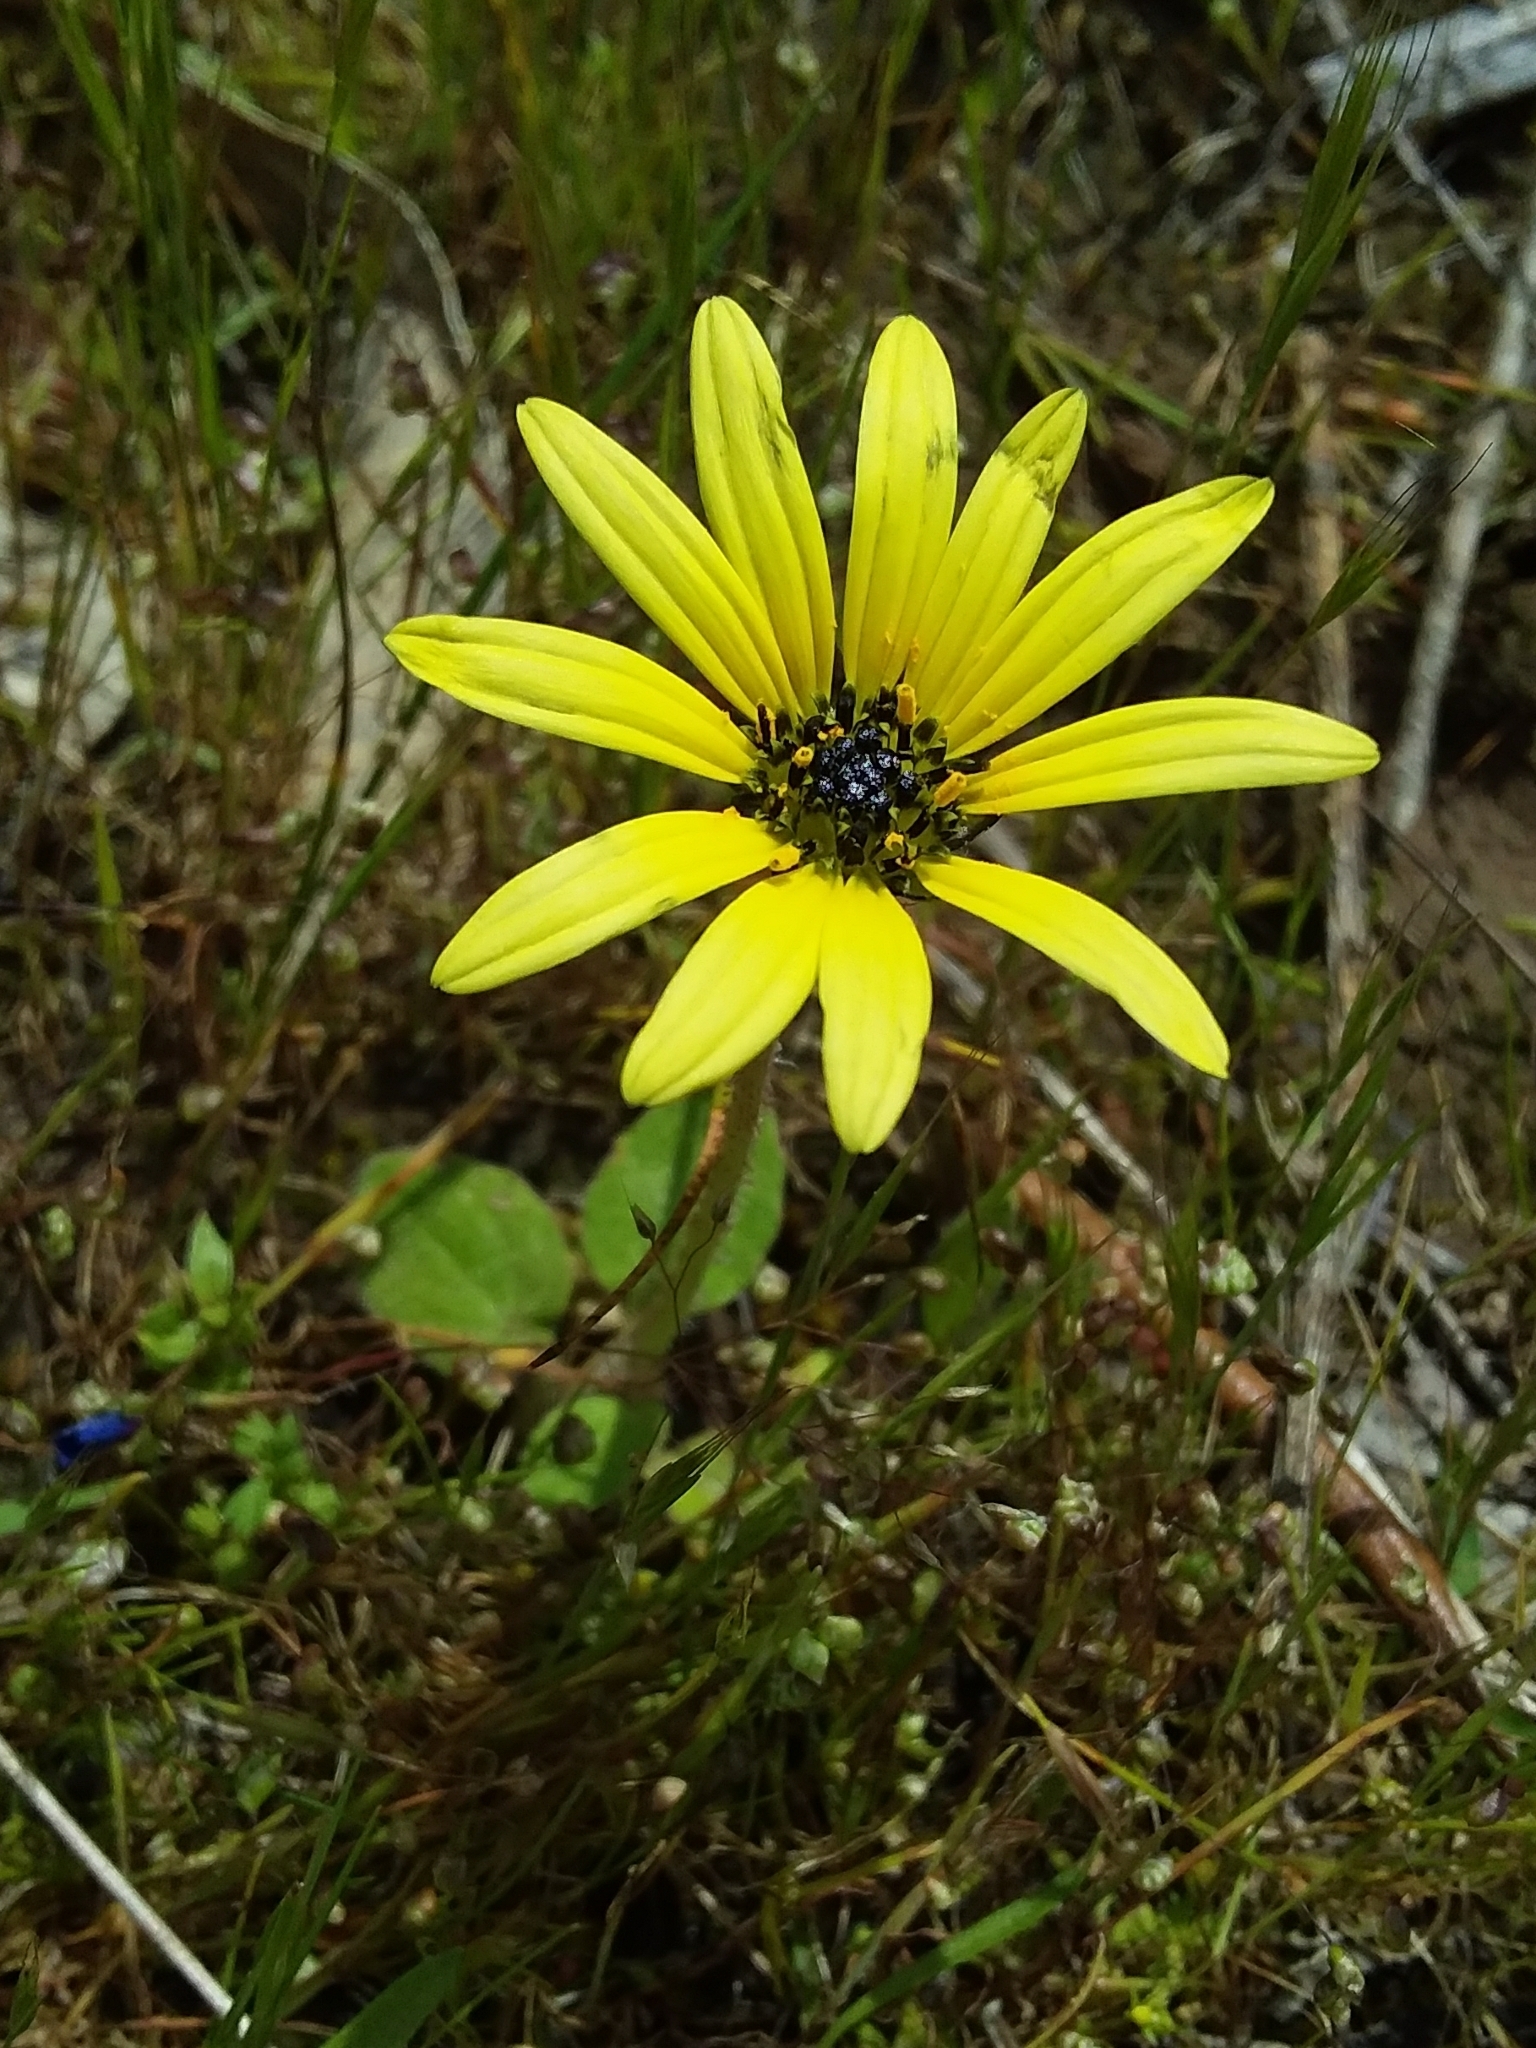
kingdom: Plantae
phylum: Tracheophyta
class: Magnoliopsida
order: Asterales
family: Asteraceae
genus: Arctotheca
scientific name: Arctotheca calendula
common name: Capeweed
